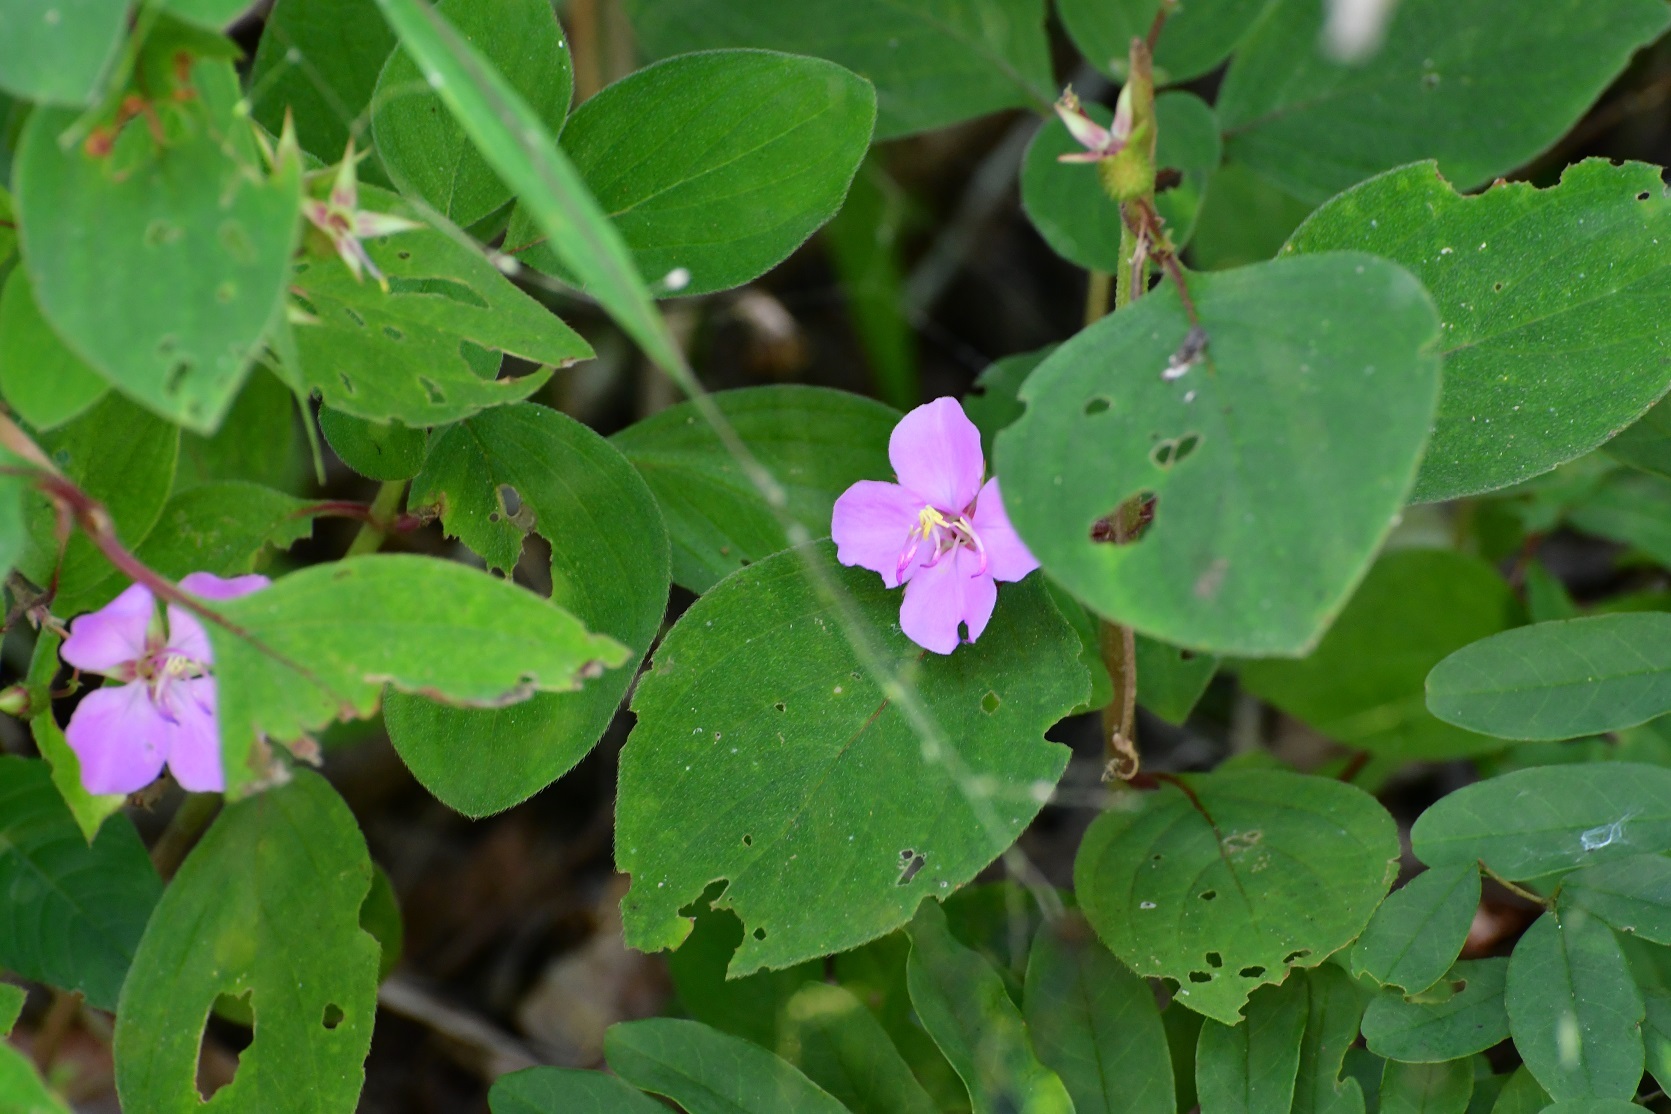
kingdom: Plantae
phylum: Tracheophyta
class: Magnoliopsida
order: Myrtales
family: Melastomataceae
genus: Heterocentron
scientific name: Heterocentron muricatum
